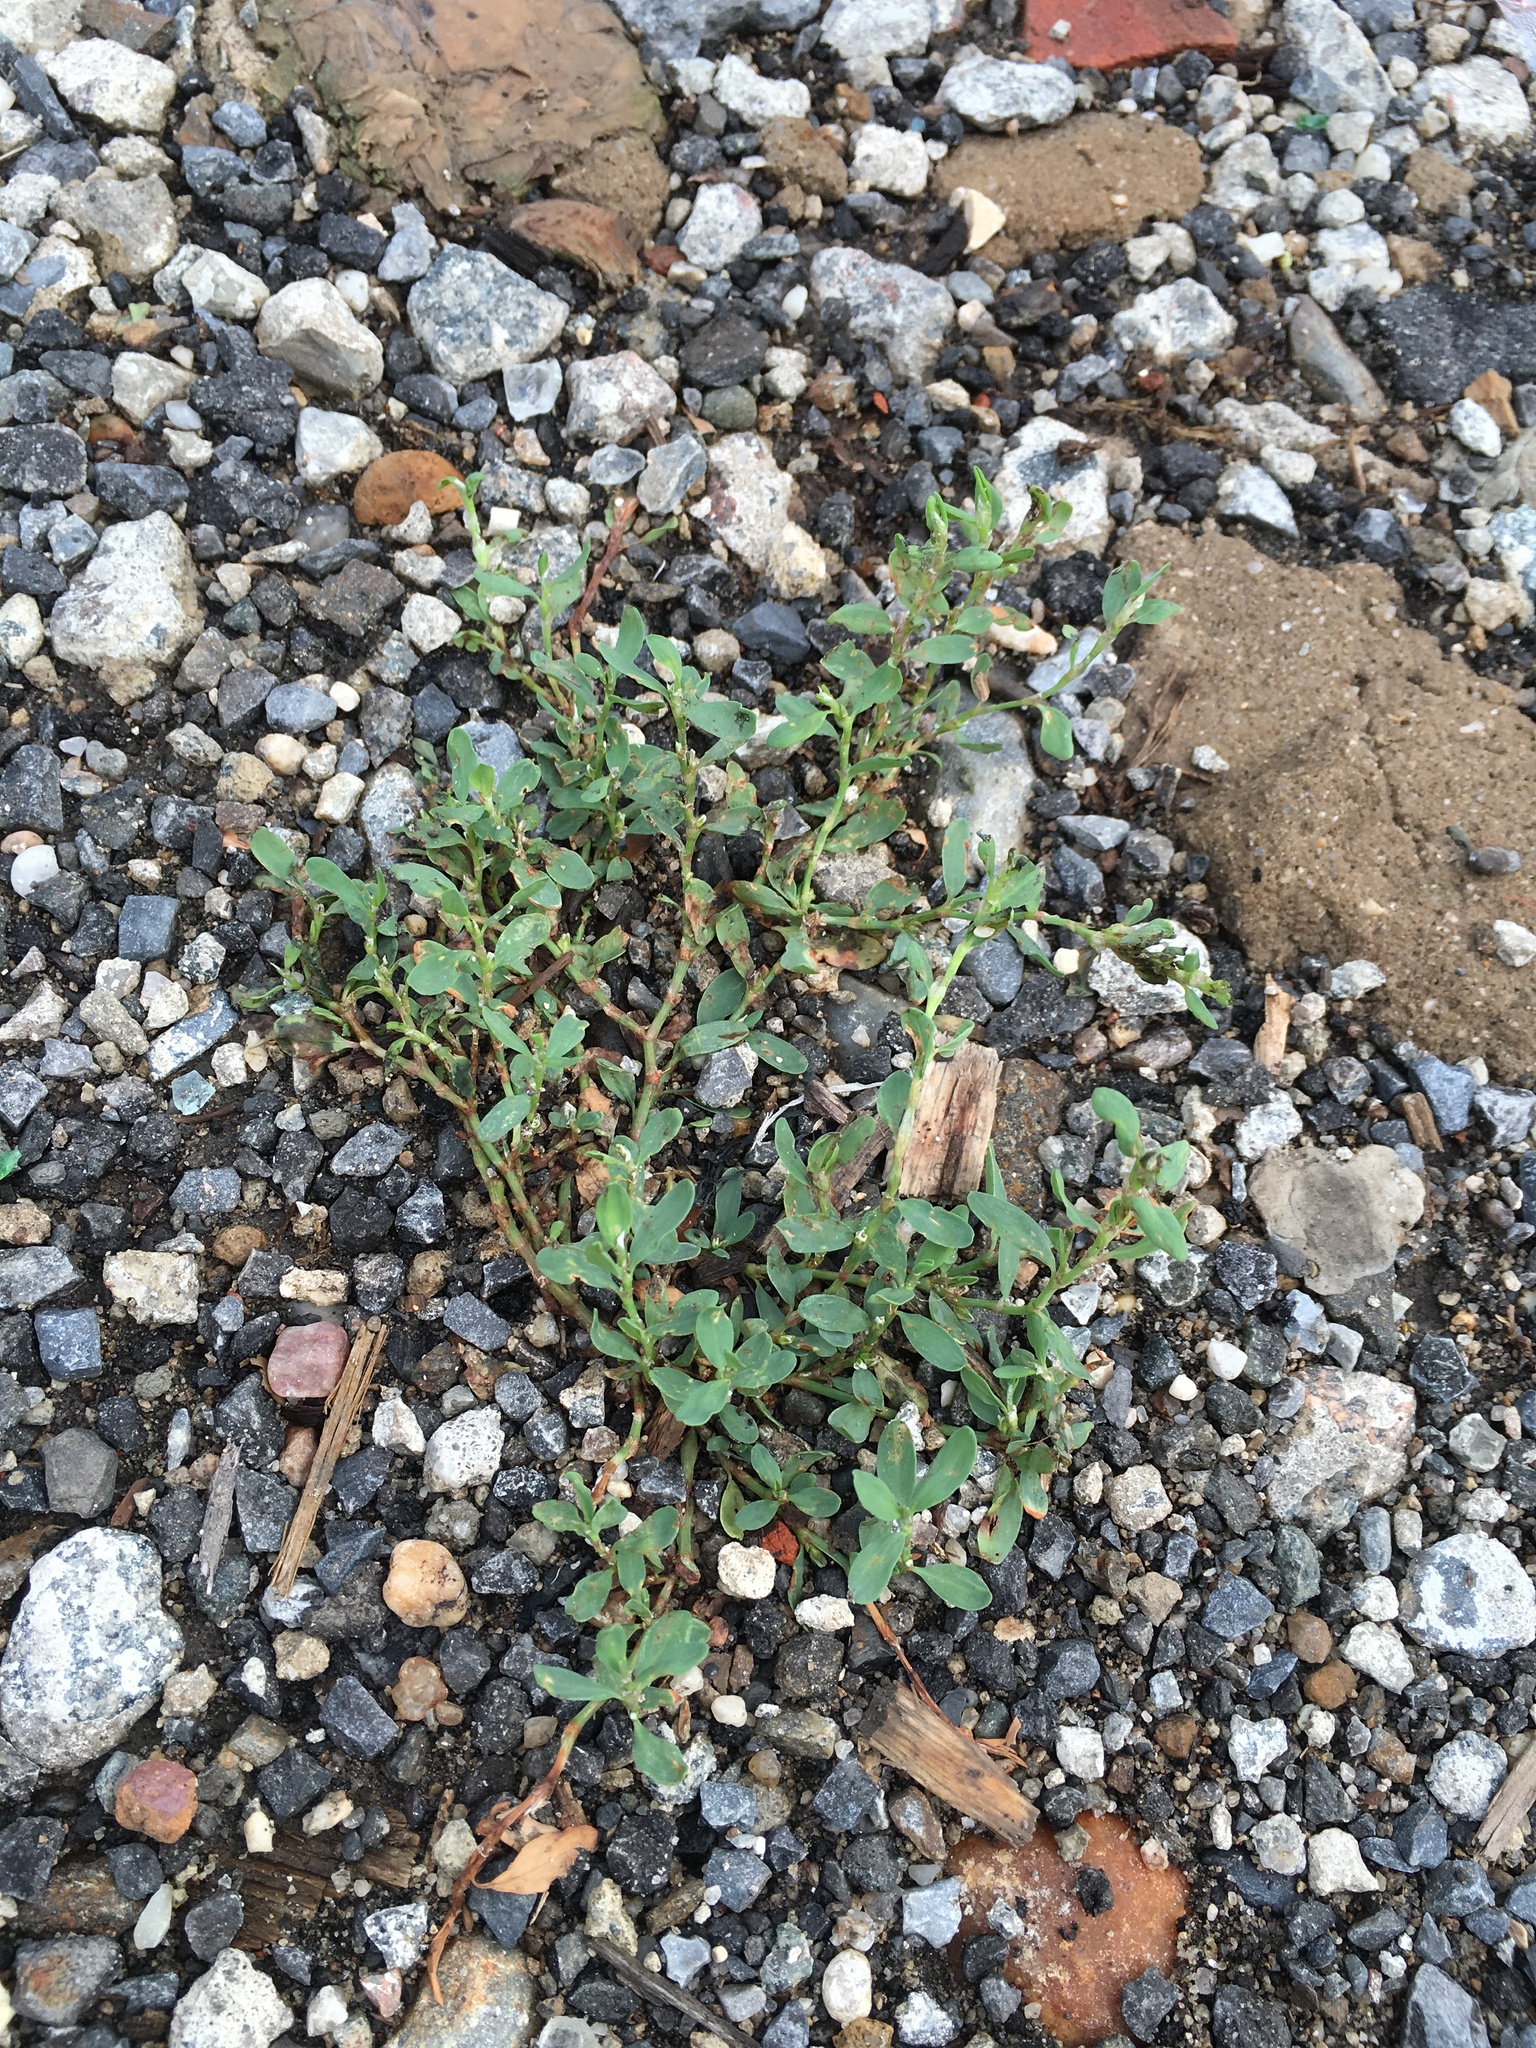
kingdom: Plantae
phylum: Tracheophyta
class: Magnoliopsida
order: Caryophyllales
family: Polygonaceae
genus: Polygonum
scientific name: Polygonum aviculare
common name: Prostrate knotweed
